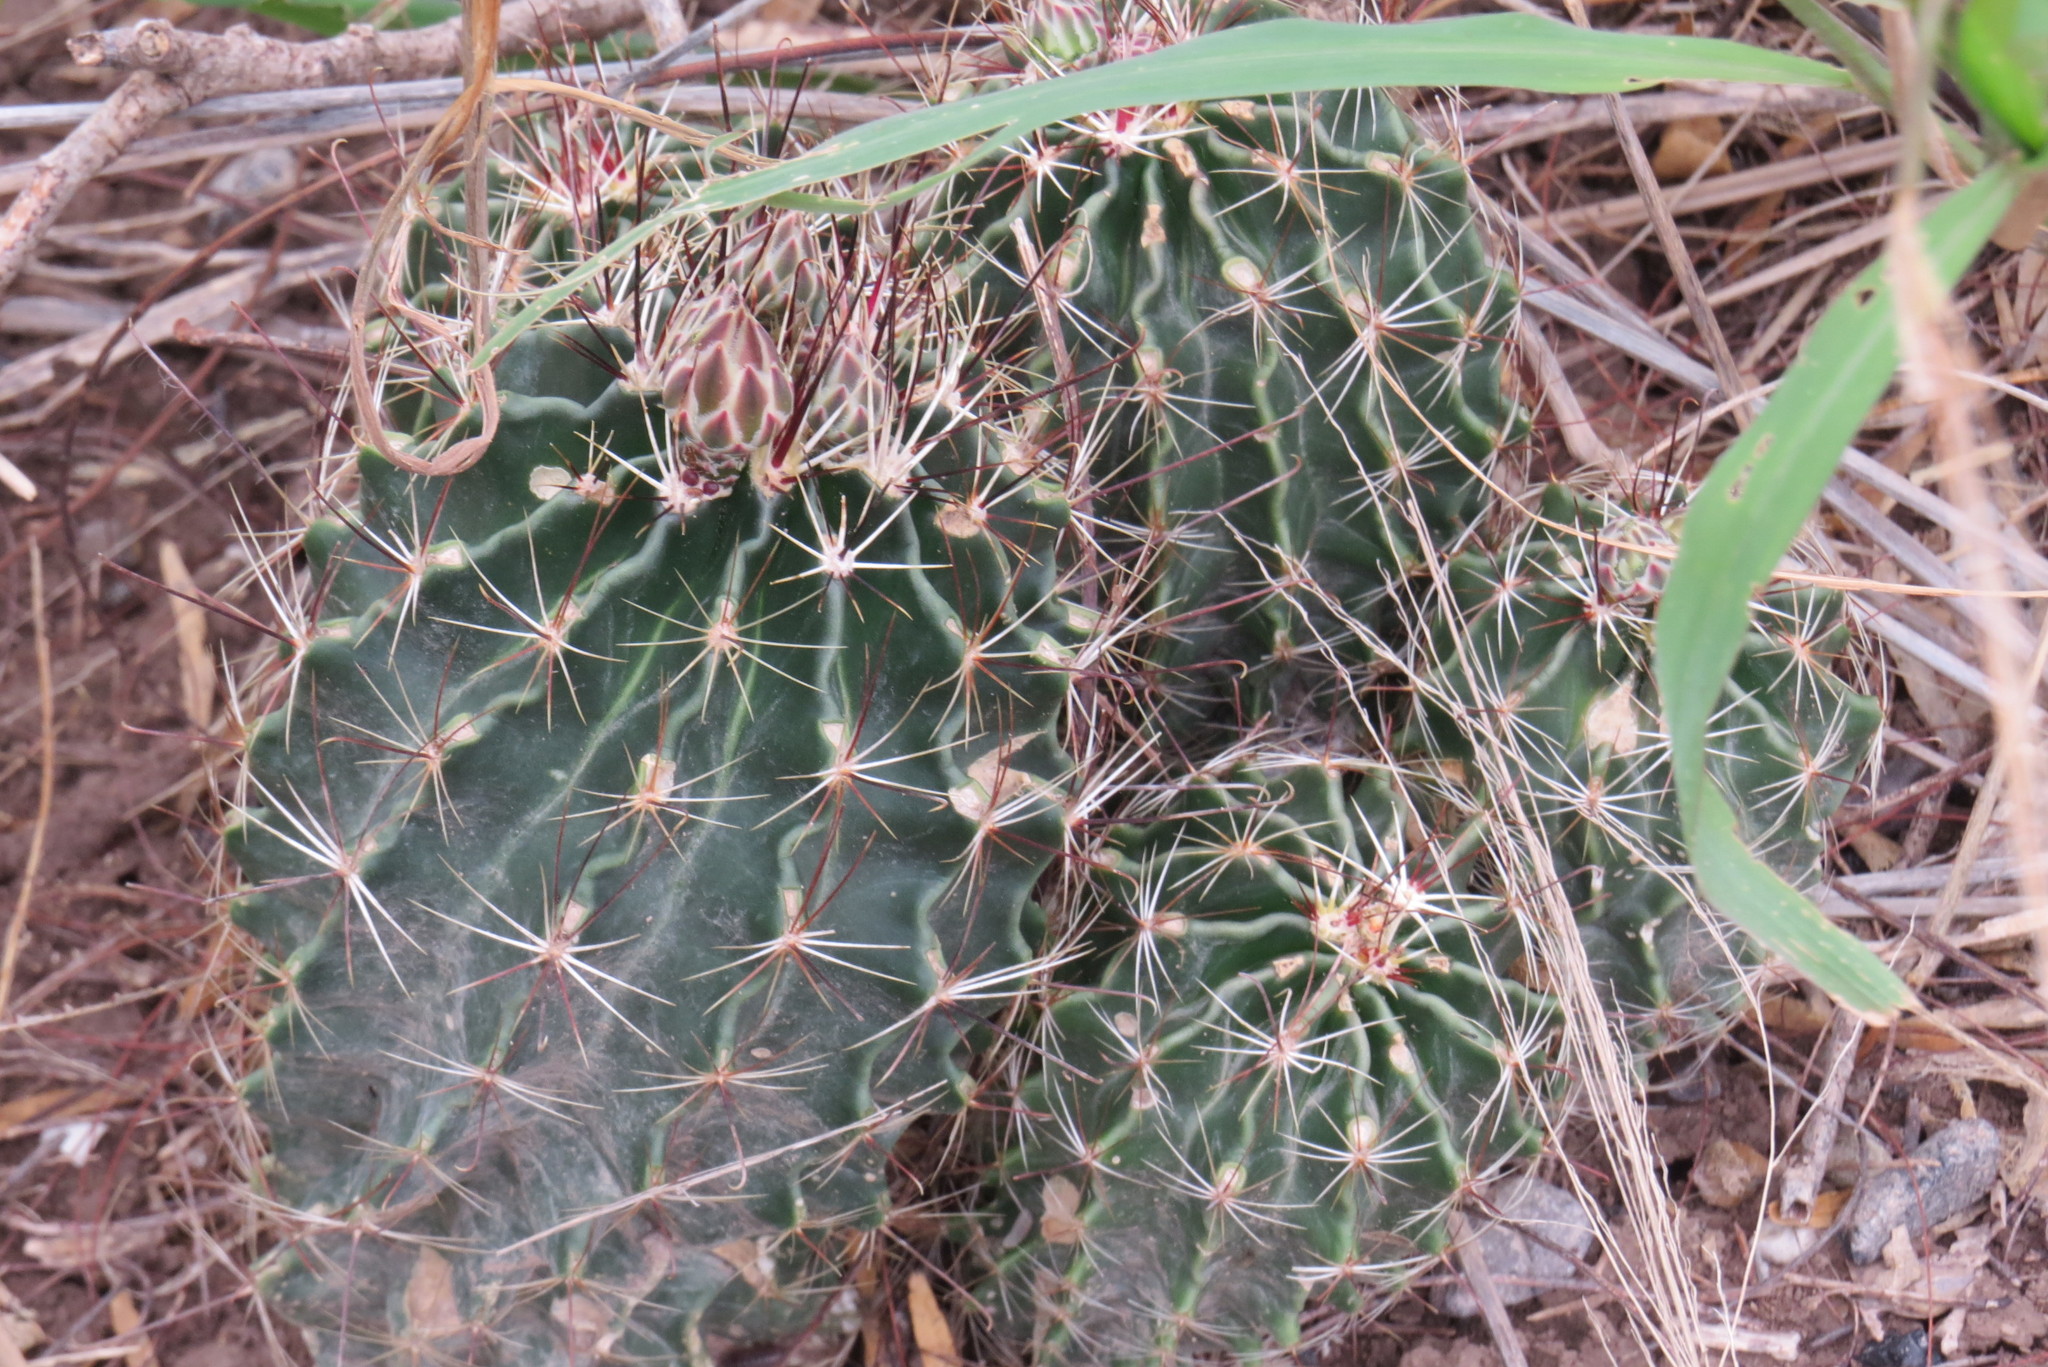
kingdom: Plantae
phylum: Tracheophyta
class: Magnoliopsida
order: Caryophyllales
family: Cactaceae
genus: Thelocactus
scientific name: Thelocactus setispinus
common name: Miniature barrel cactus
